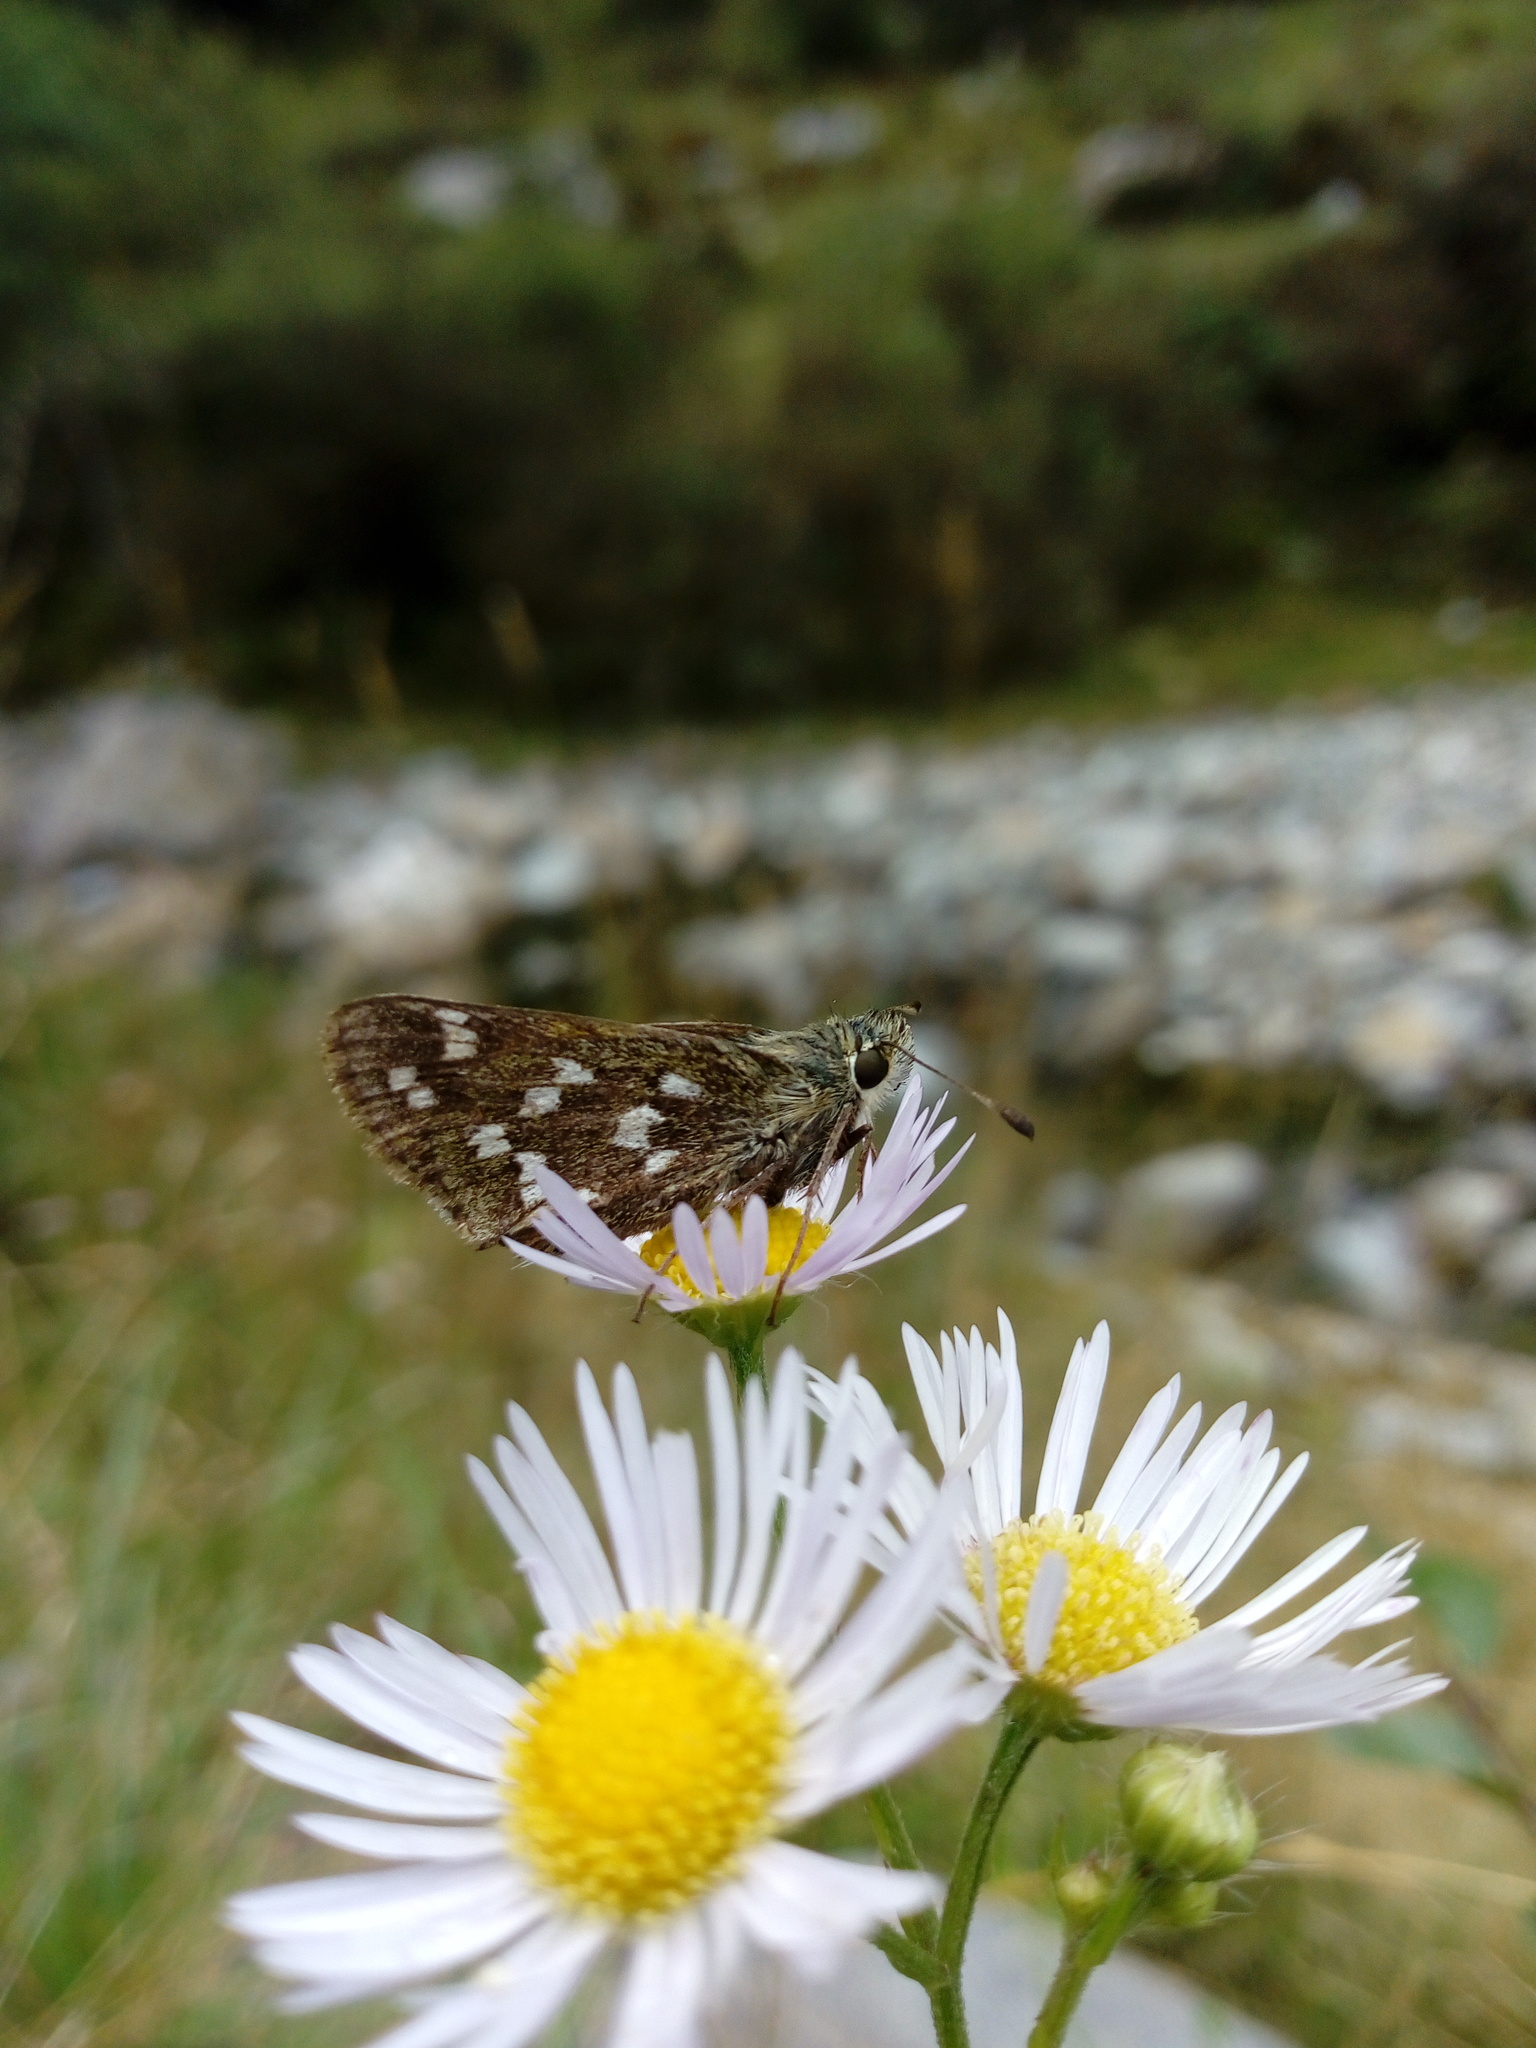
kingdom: Animalia
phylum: Arthropoda
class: Insecta
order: Lepidoptera
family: Hesperiidae
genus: Hesperia
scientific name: Hesperia comma
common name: Common branded skipper
